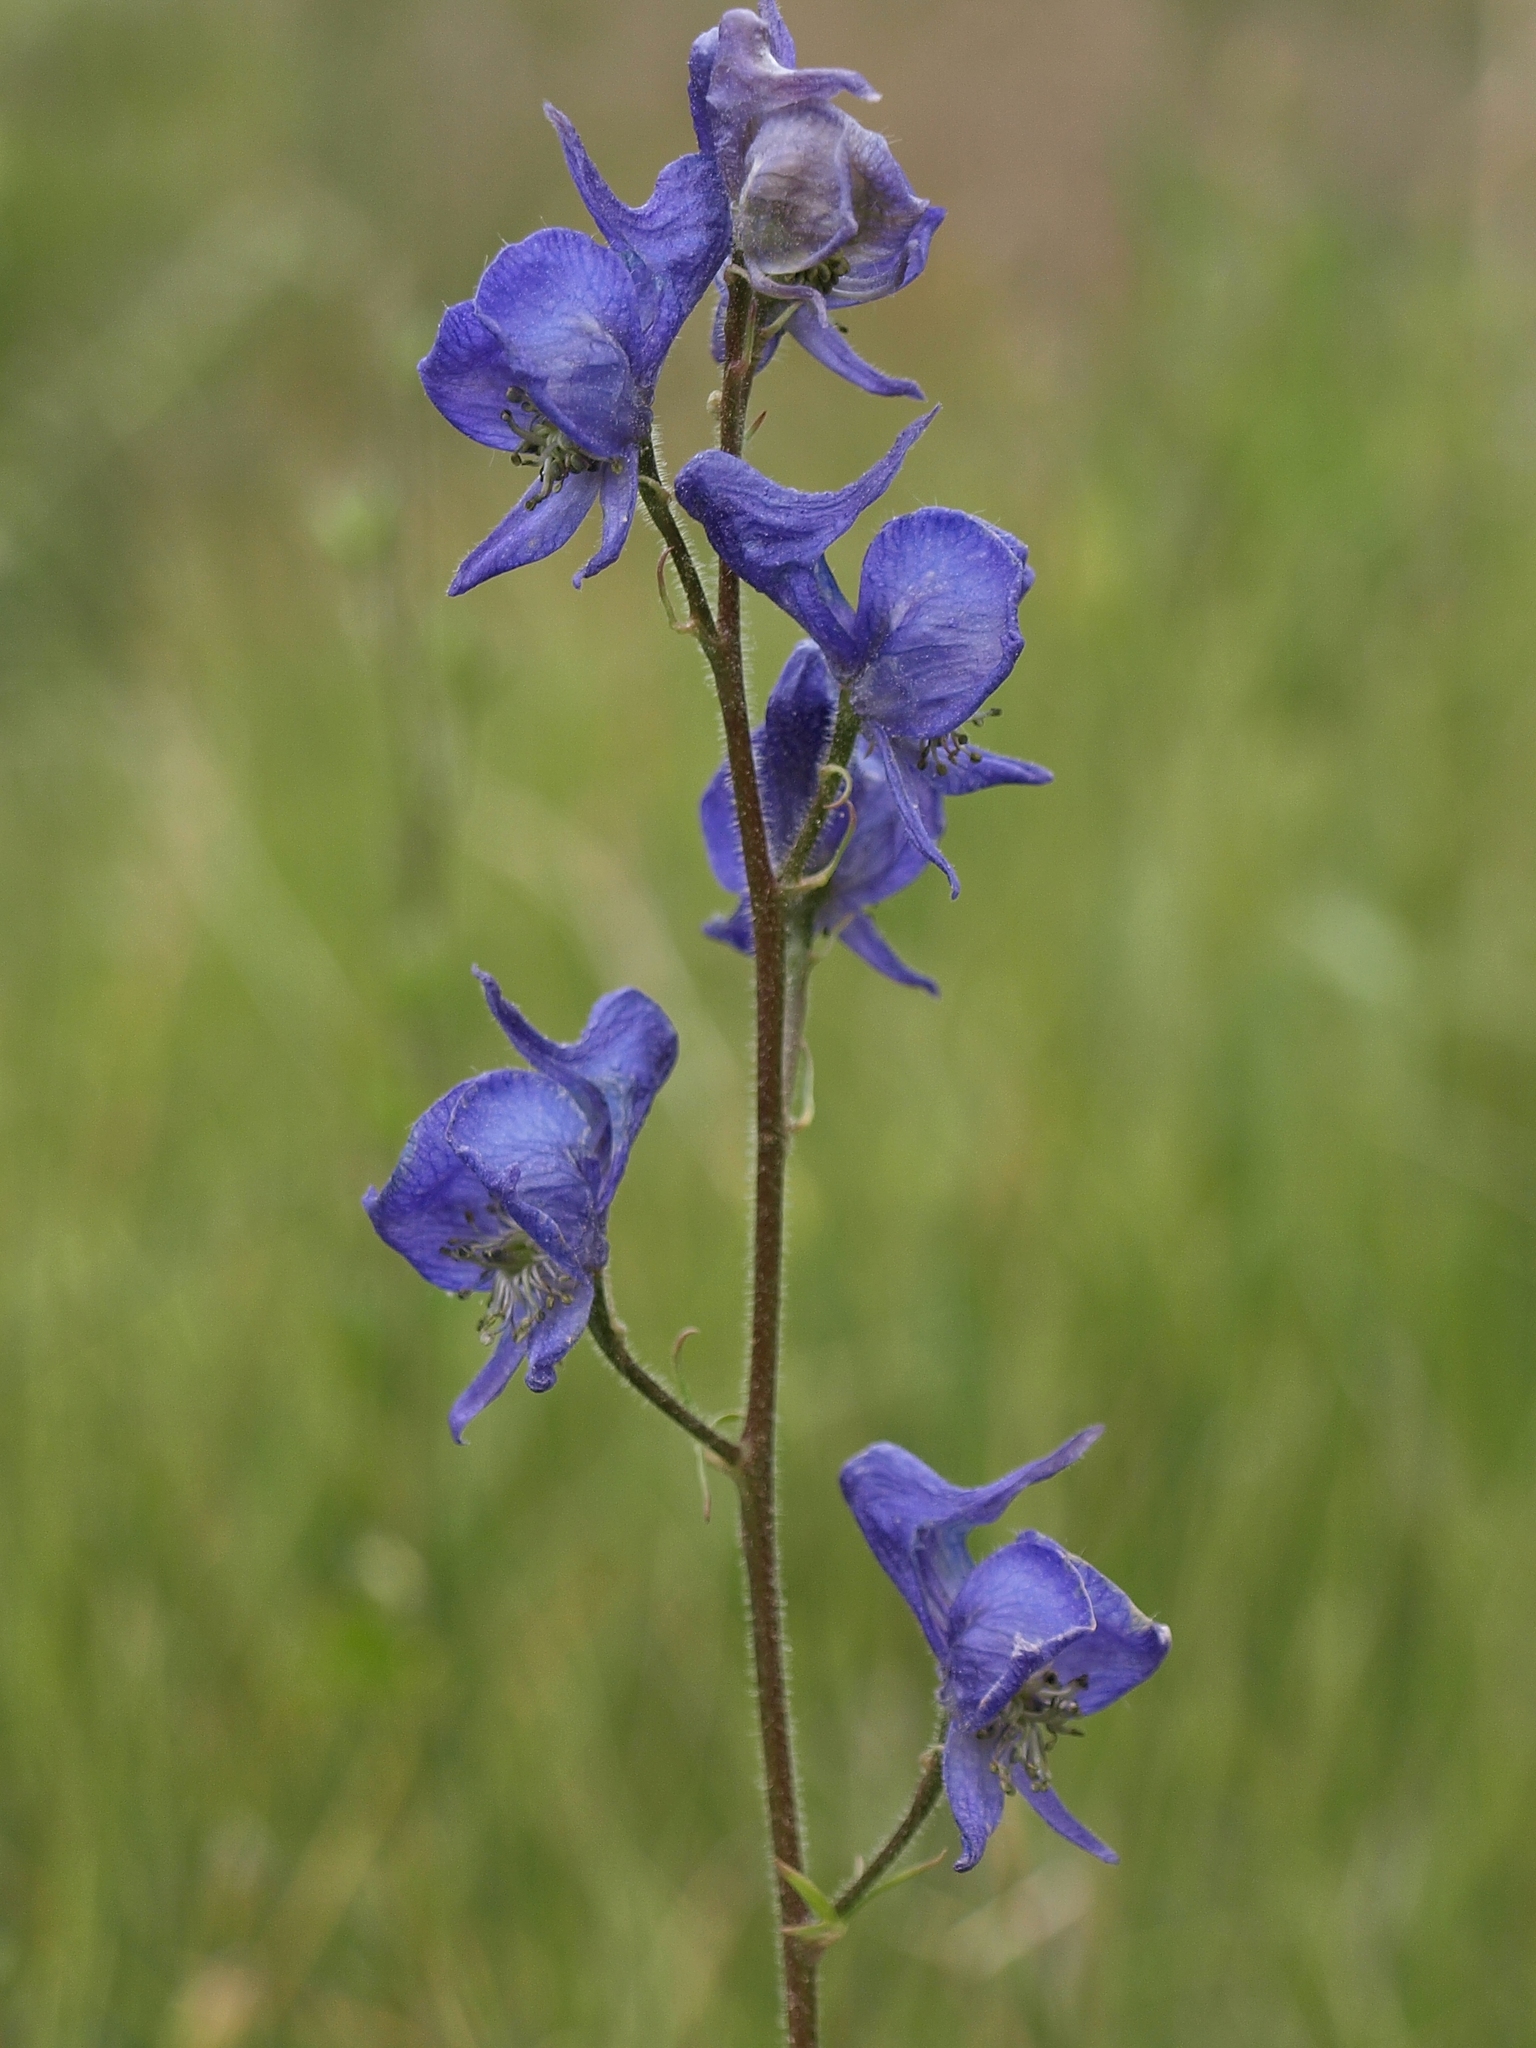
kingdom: Plantae
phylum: Tracheophyta
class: Magnoliopsida
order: Ranunculales
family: Ranunculaceae
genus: Aconitum
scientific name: Aconitum columbianum
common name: Columbia aconite
